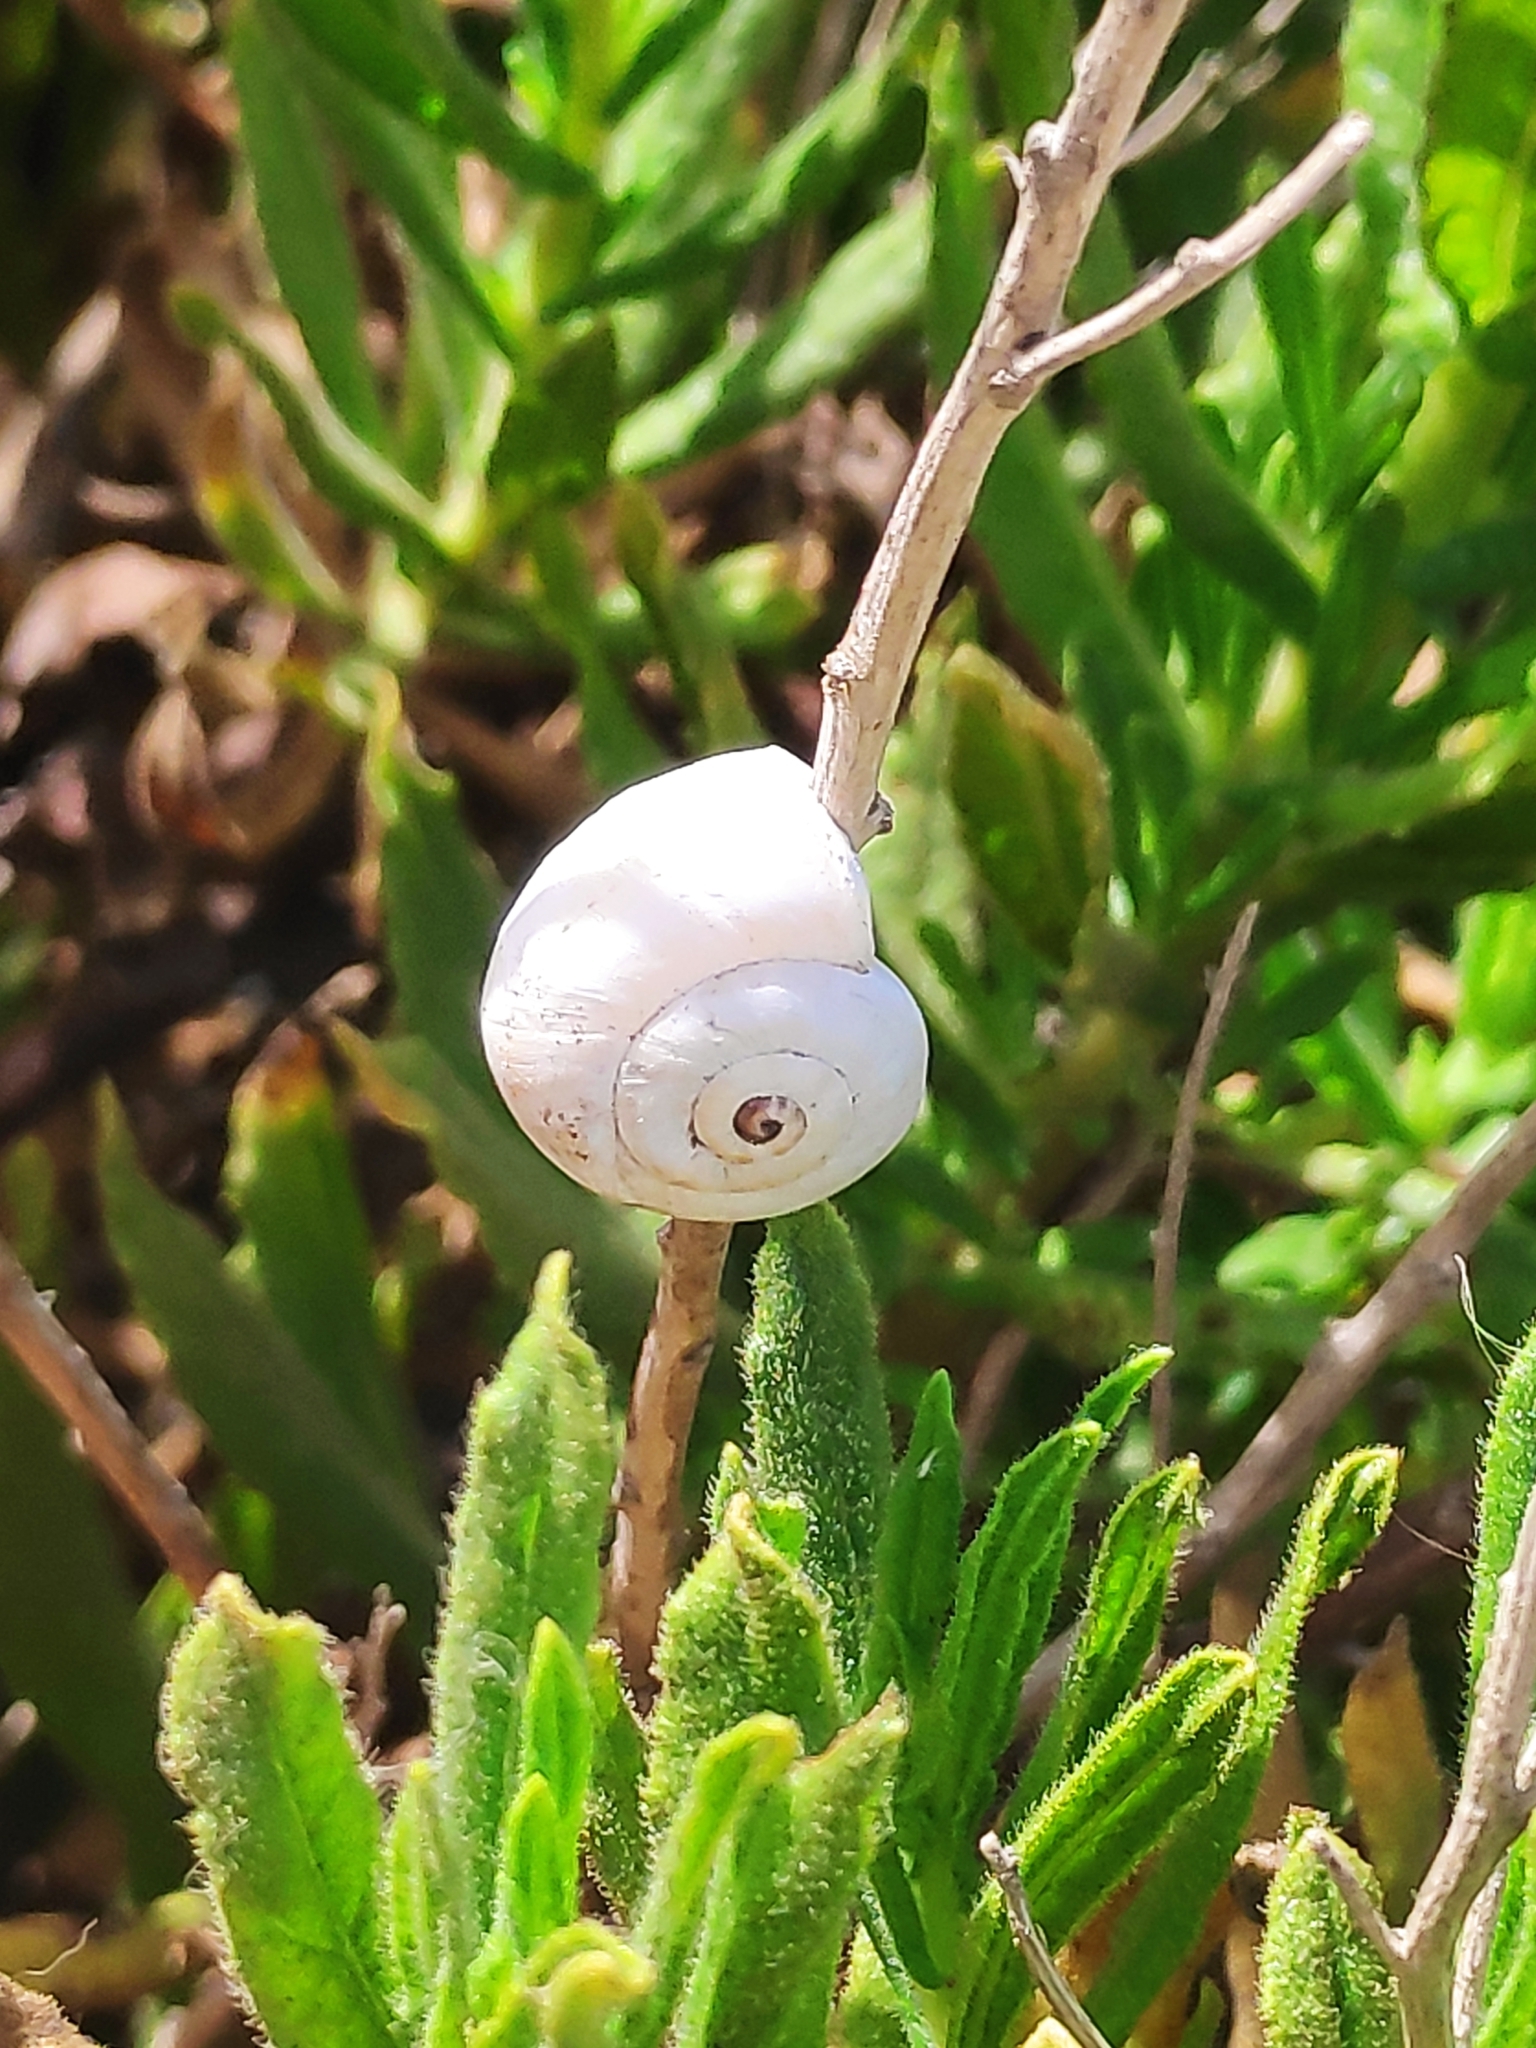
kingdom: Animalia
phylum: Mollusca
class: Gastropoda
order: Stylommatophora
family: Helicidae
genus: Theba
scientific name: Theba pisana
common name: White snail
